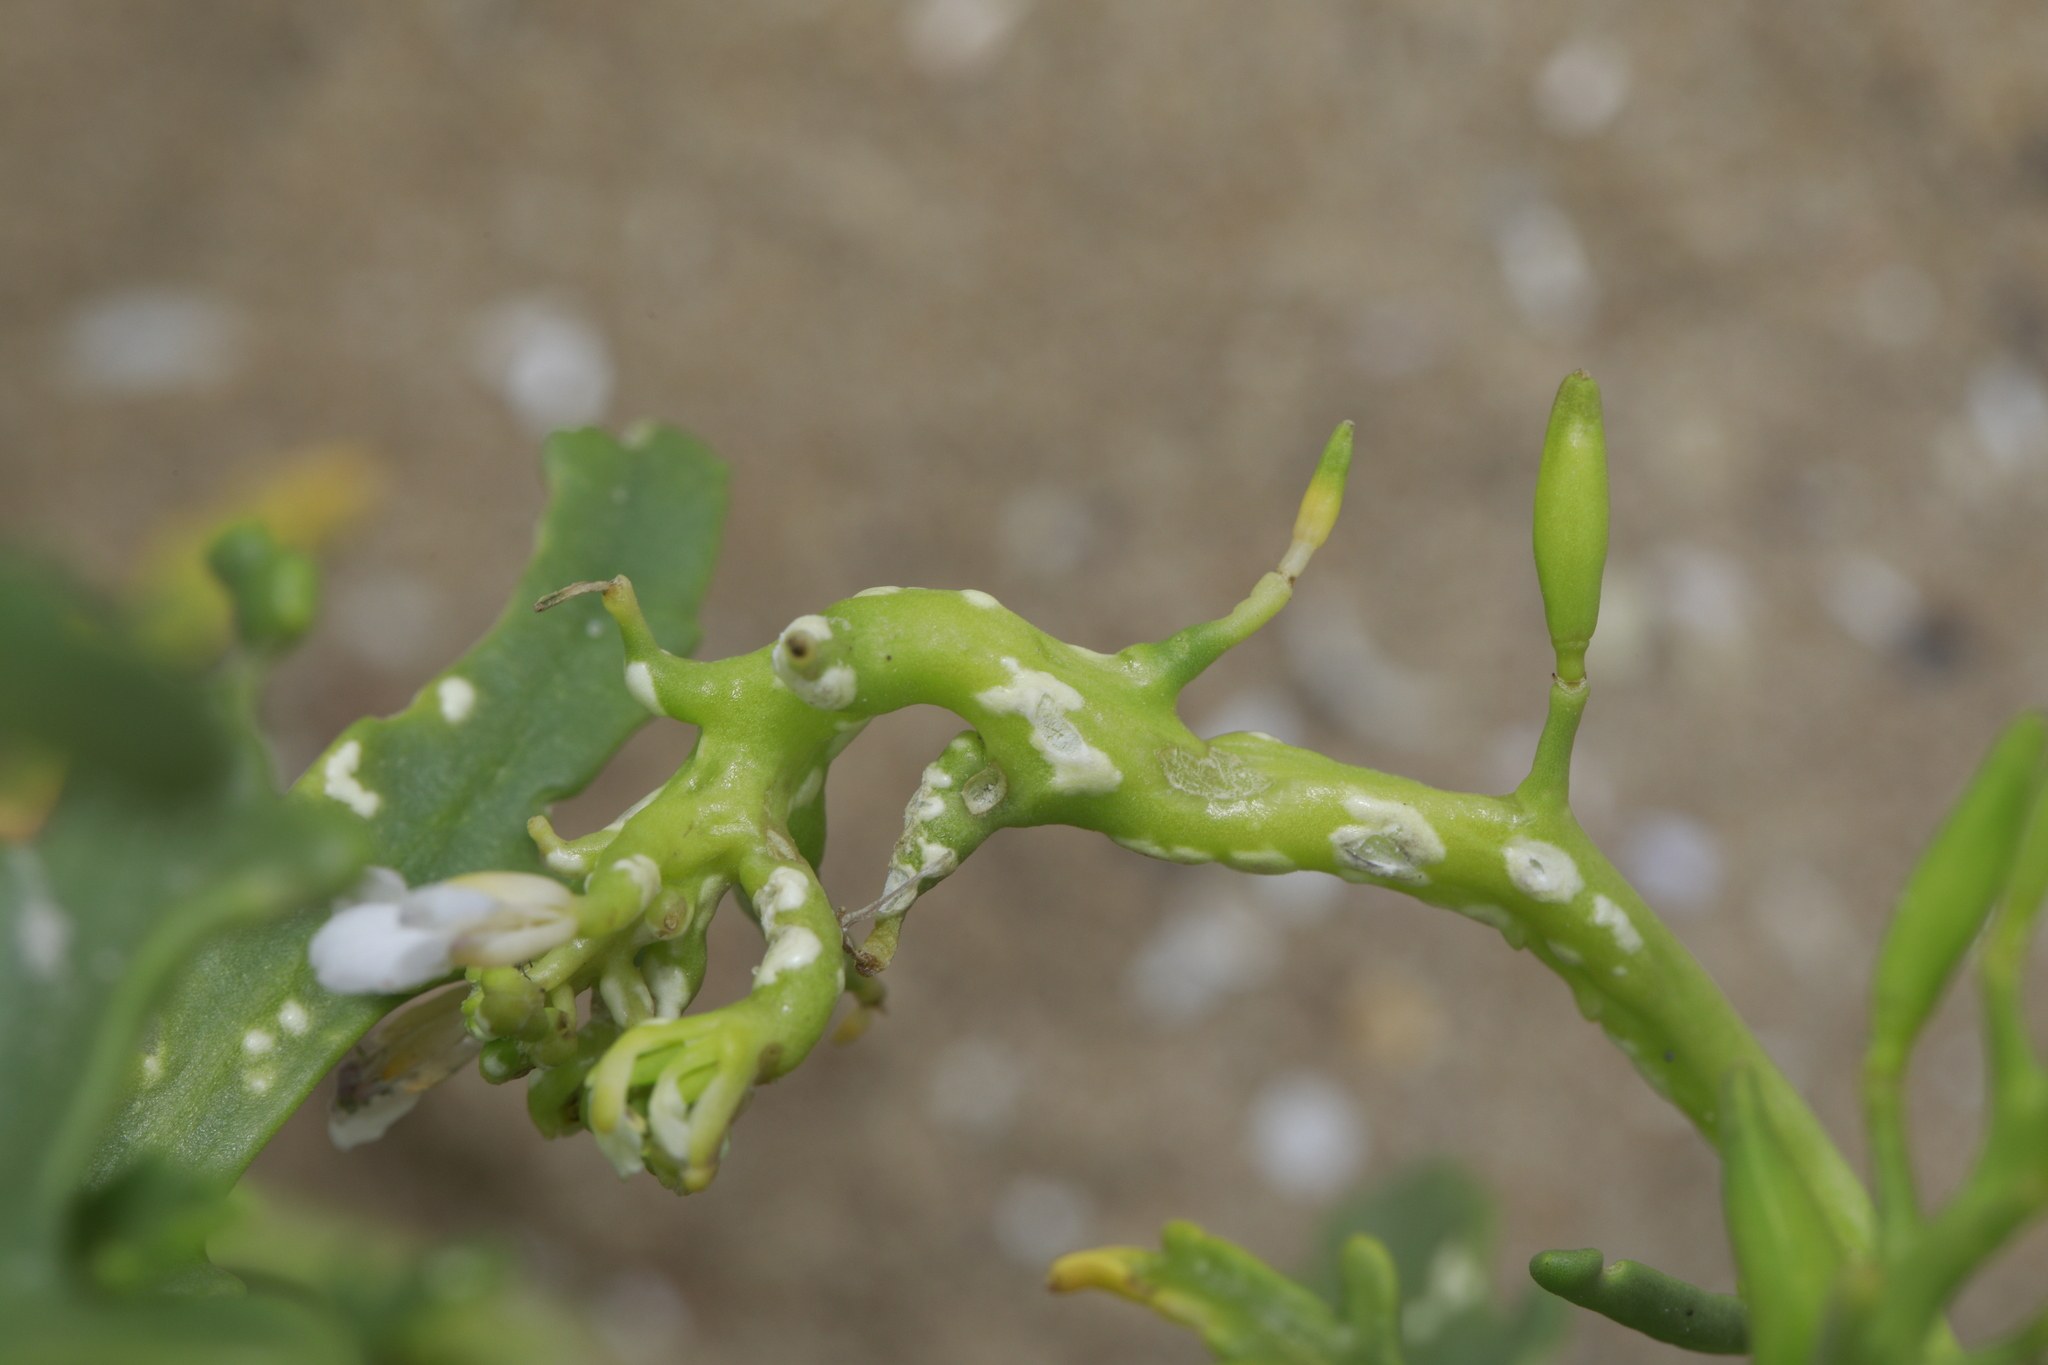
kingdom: Chromista
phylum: Oomycota
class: Peronosporea
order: Albuginales
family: Albuginaceae
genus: Albugo
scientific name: Albugo candida
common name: Crucifer white blister
